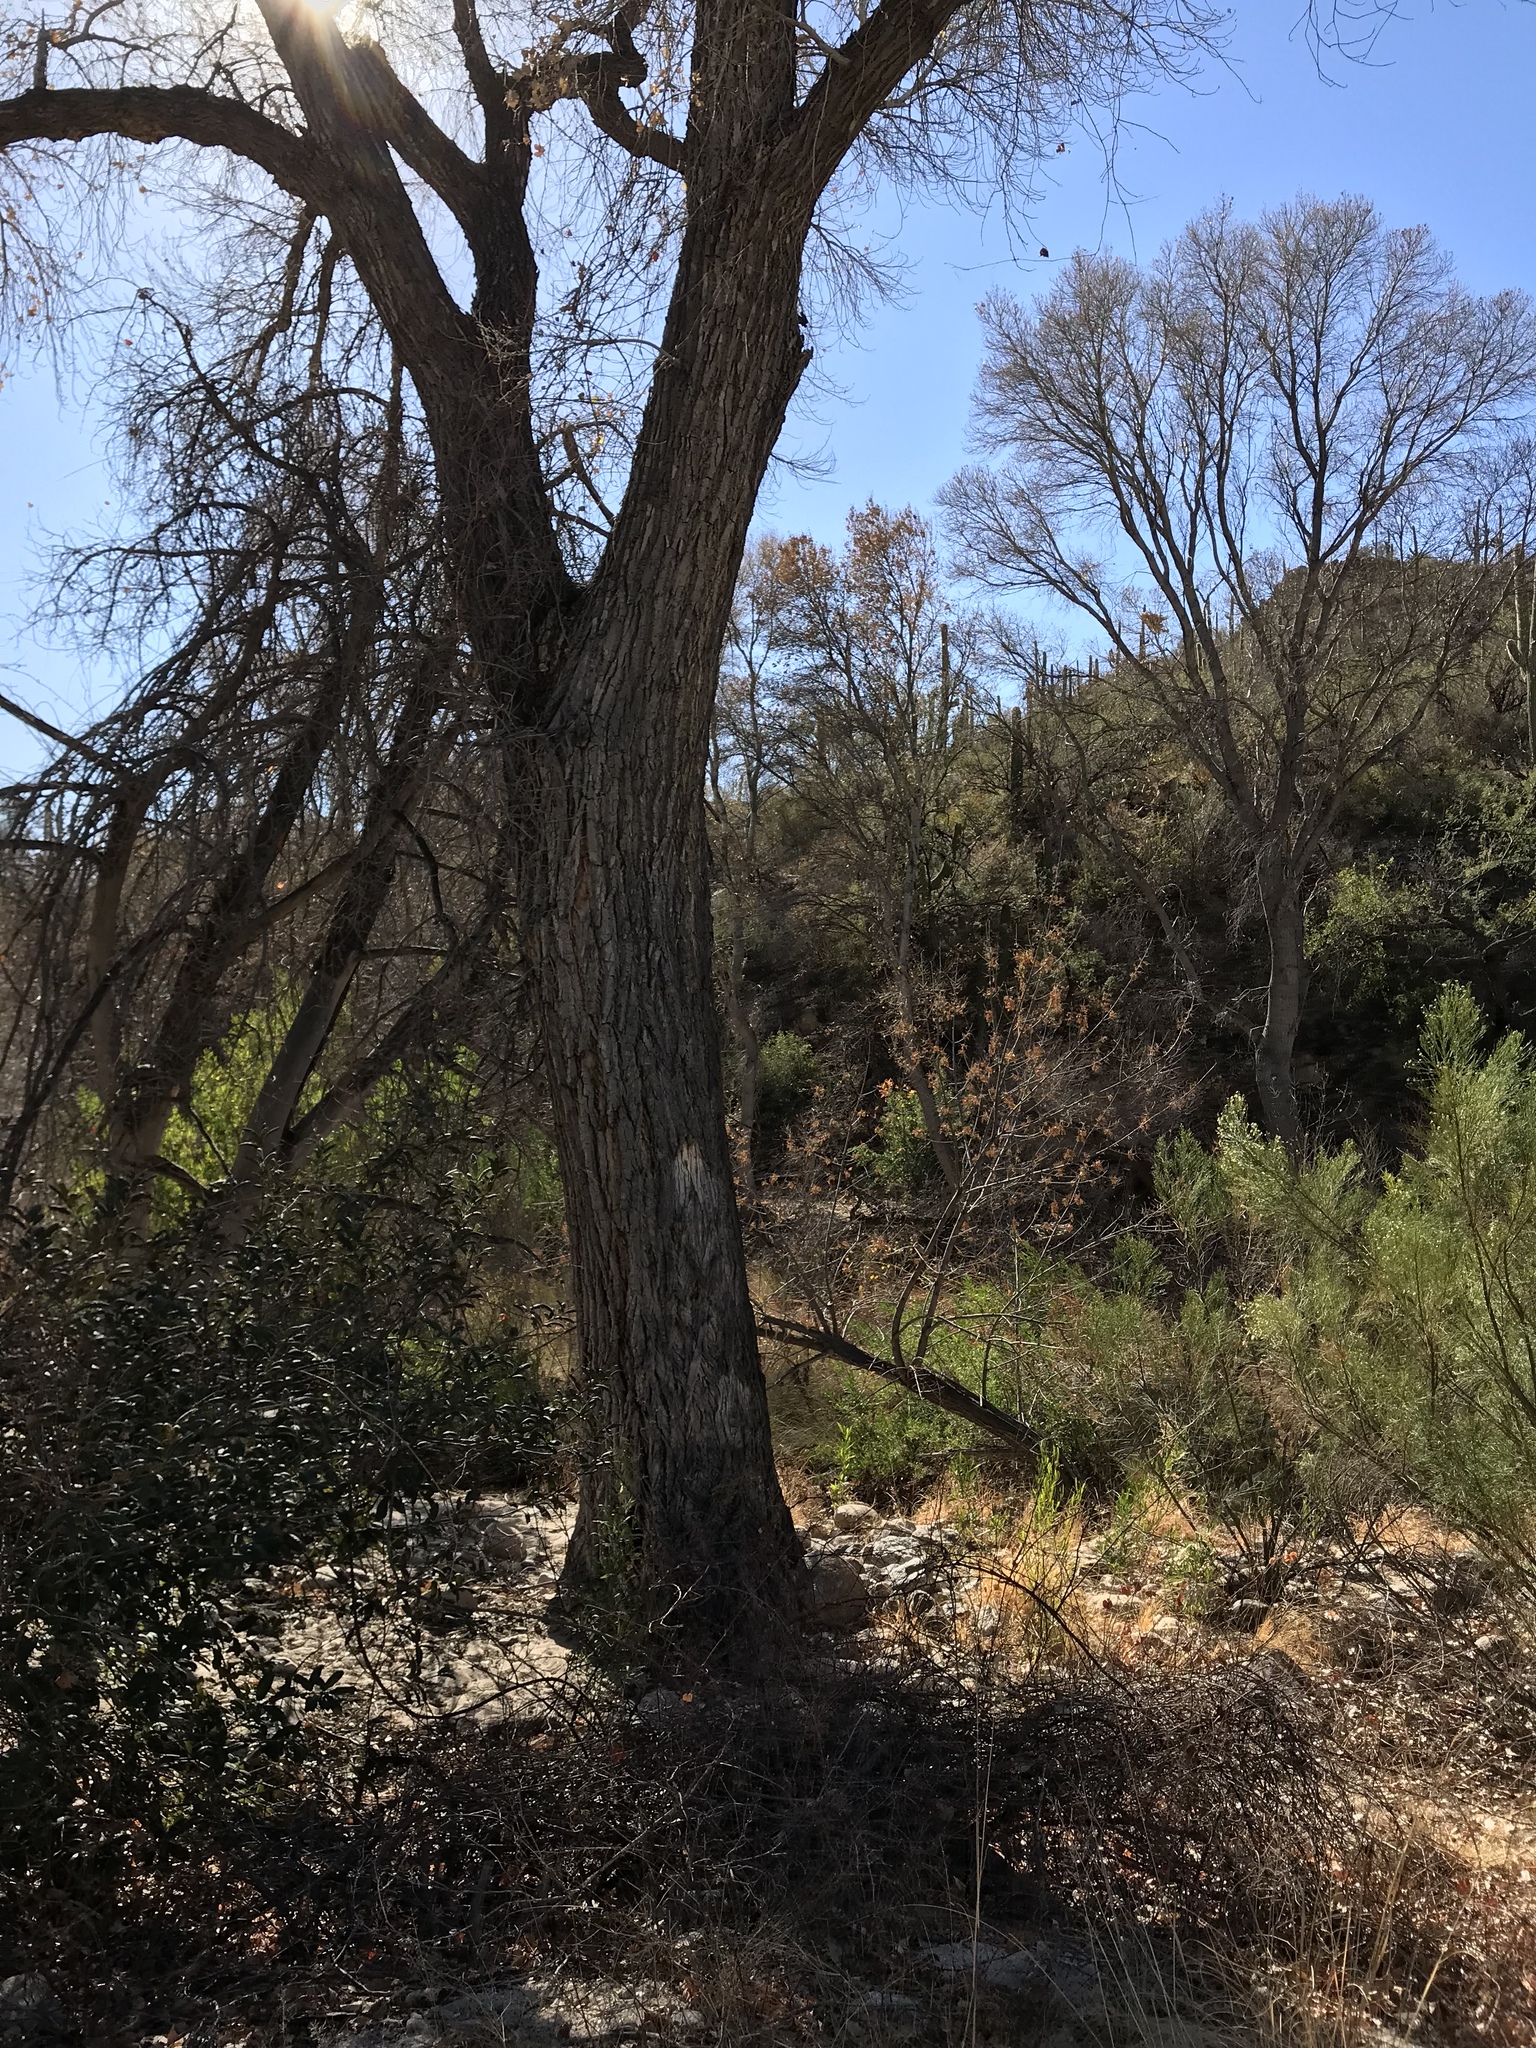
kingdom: Plantae
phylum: Tracheophyta
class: Magnoliopsida
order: Malpighiales
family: Salicaceae
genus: Populus
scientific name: Populus fremontii
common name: Fremont's cottonwood
